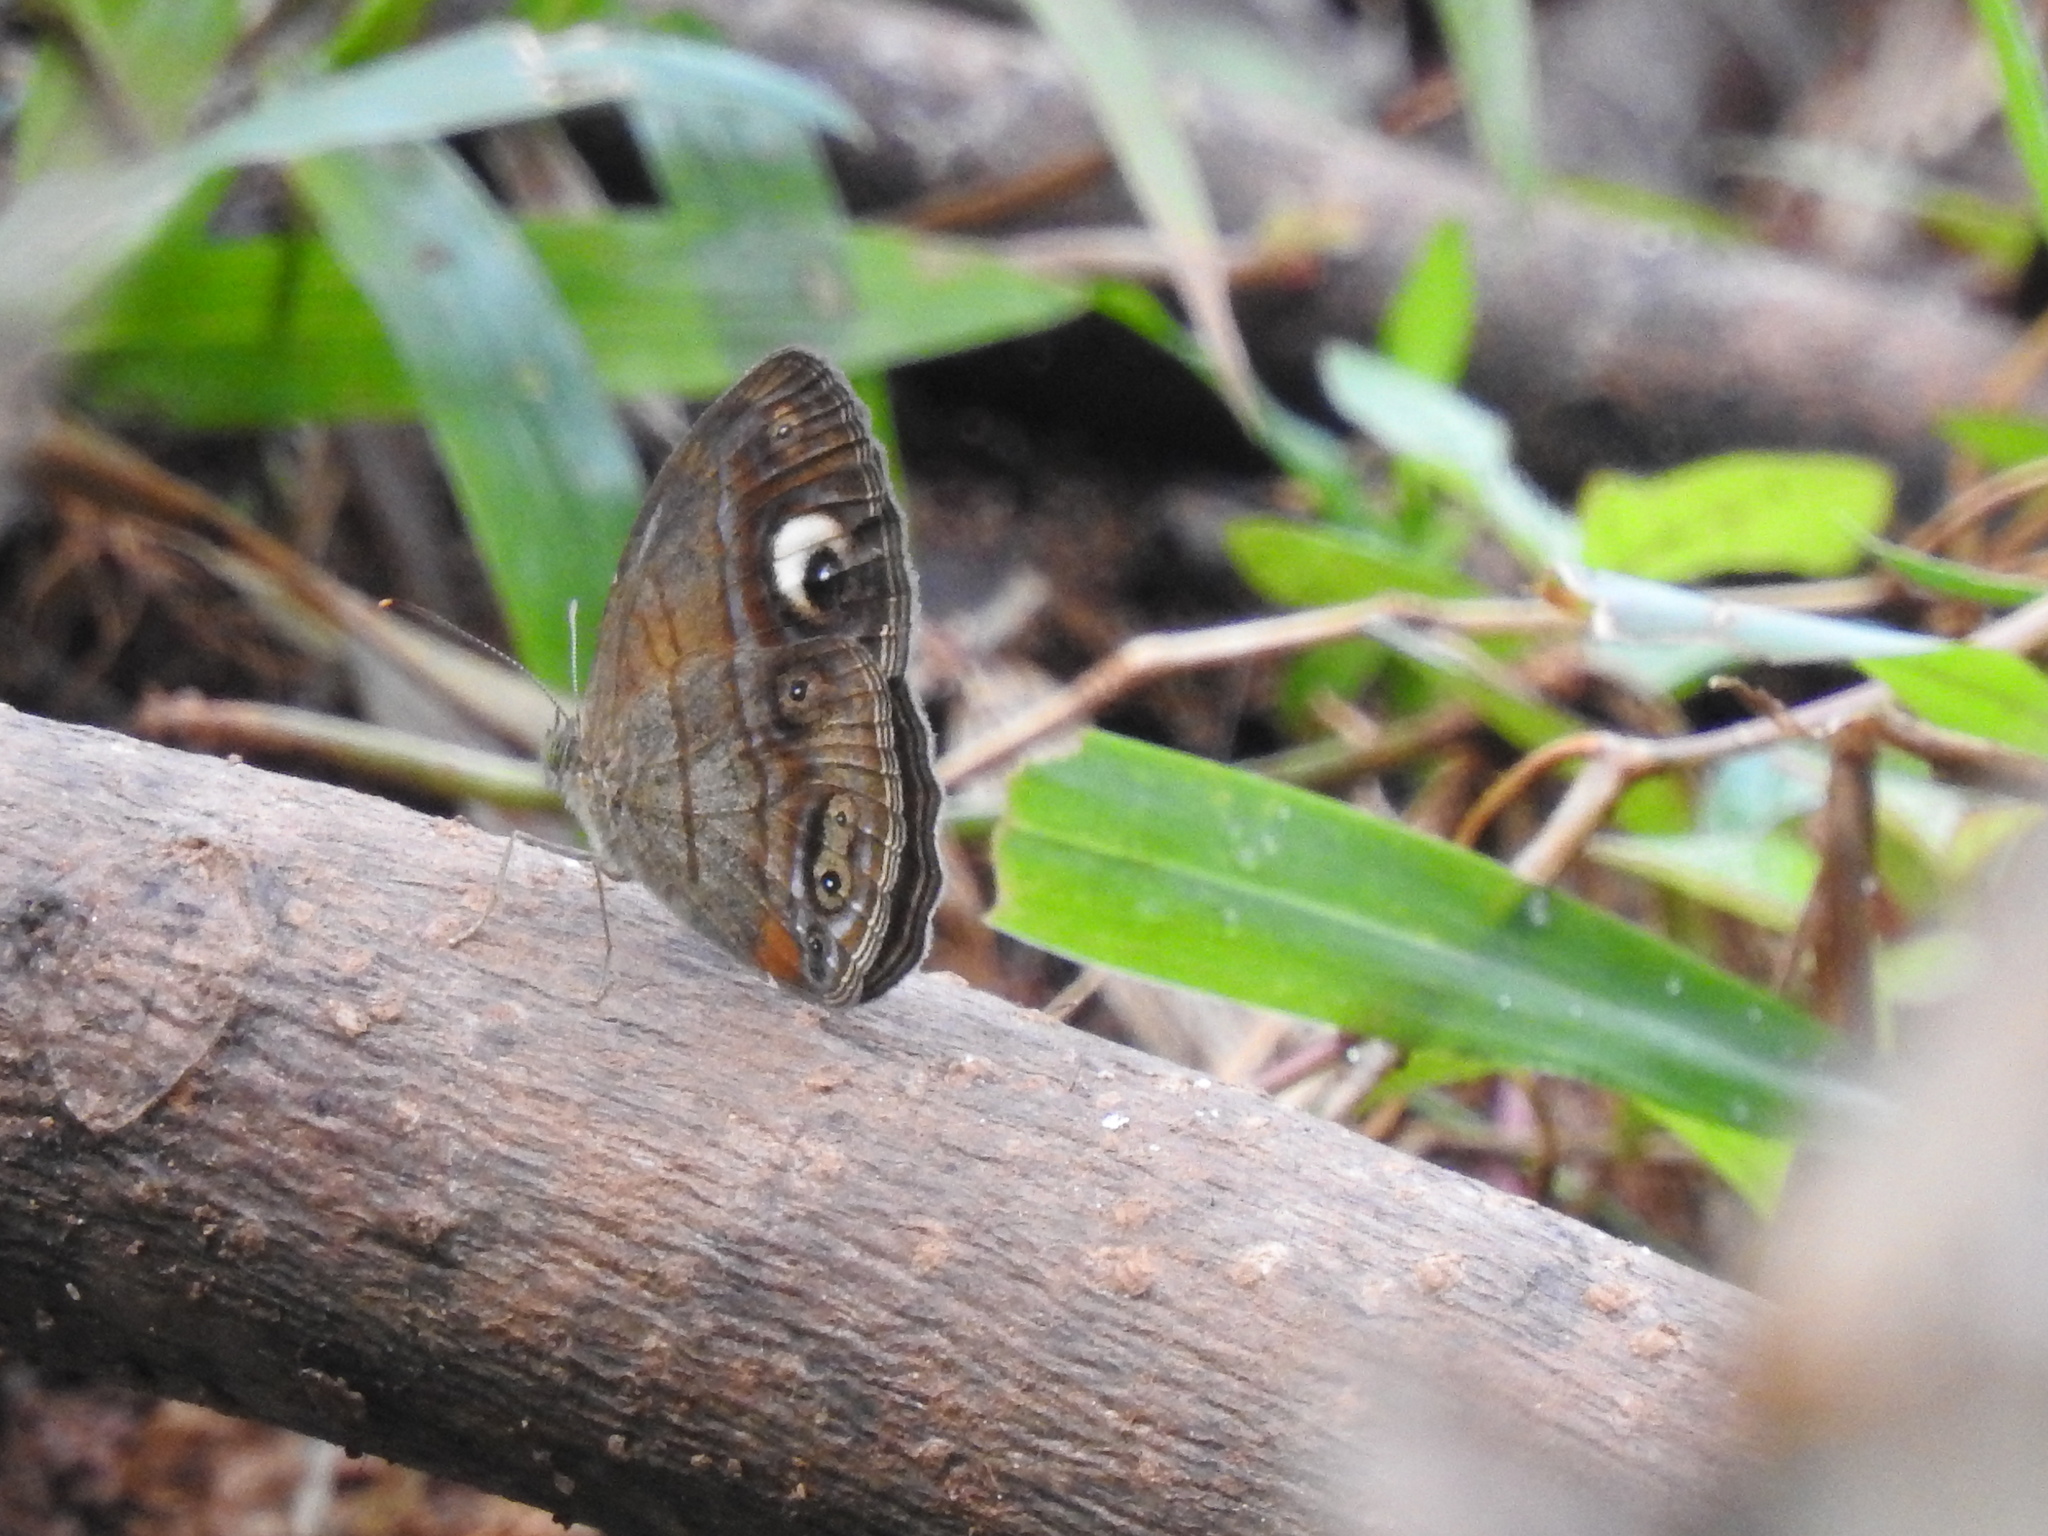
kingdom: Animalia
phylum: Arthropoda
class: Insecta
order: Lepidoptera
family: Nymphalidae
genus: Mycalesis
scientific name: Mycalesis patnia
